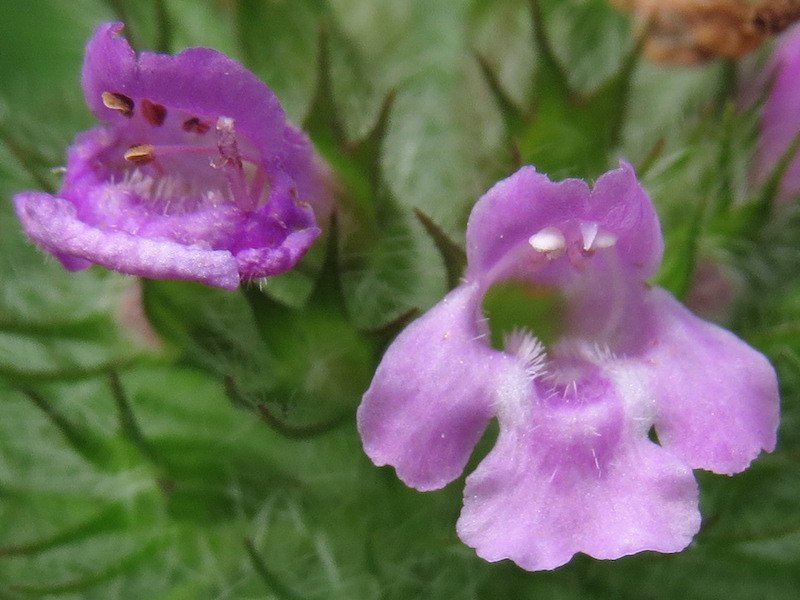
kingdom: Plantae
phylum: Tracheophyta
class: Magnoliopsida
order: Lamiales
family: Lamiaceae
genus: Clinopodium
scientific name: Clinopodium vulgare
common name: Wild basil
